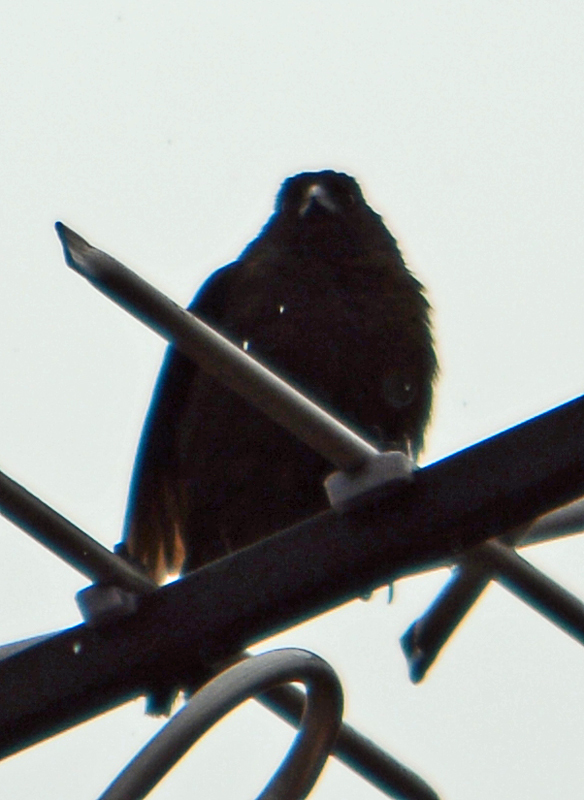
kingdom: Animalia
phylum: Chordata
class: Aves
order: Passeriformes
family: Icteridae
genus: Molothrus
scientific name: Molothrus aeneus
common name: Bronzed cowbird
